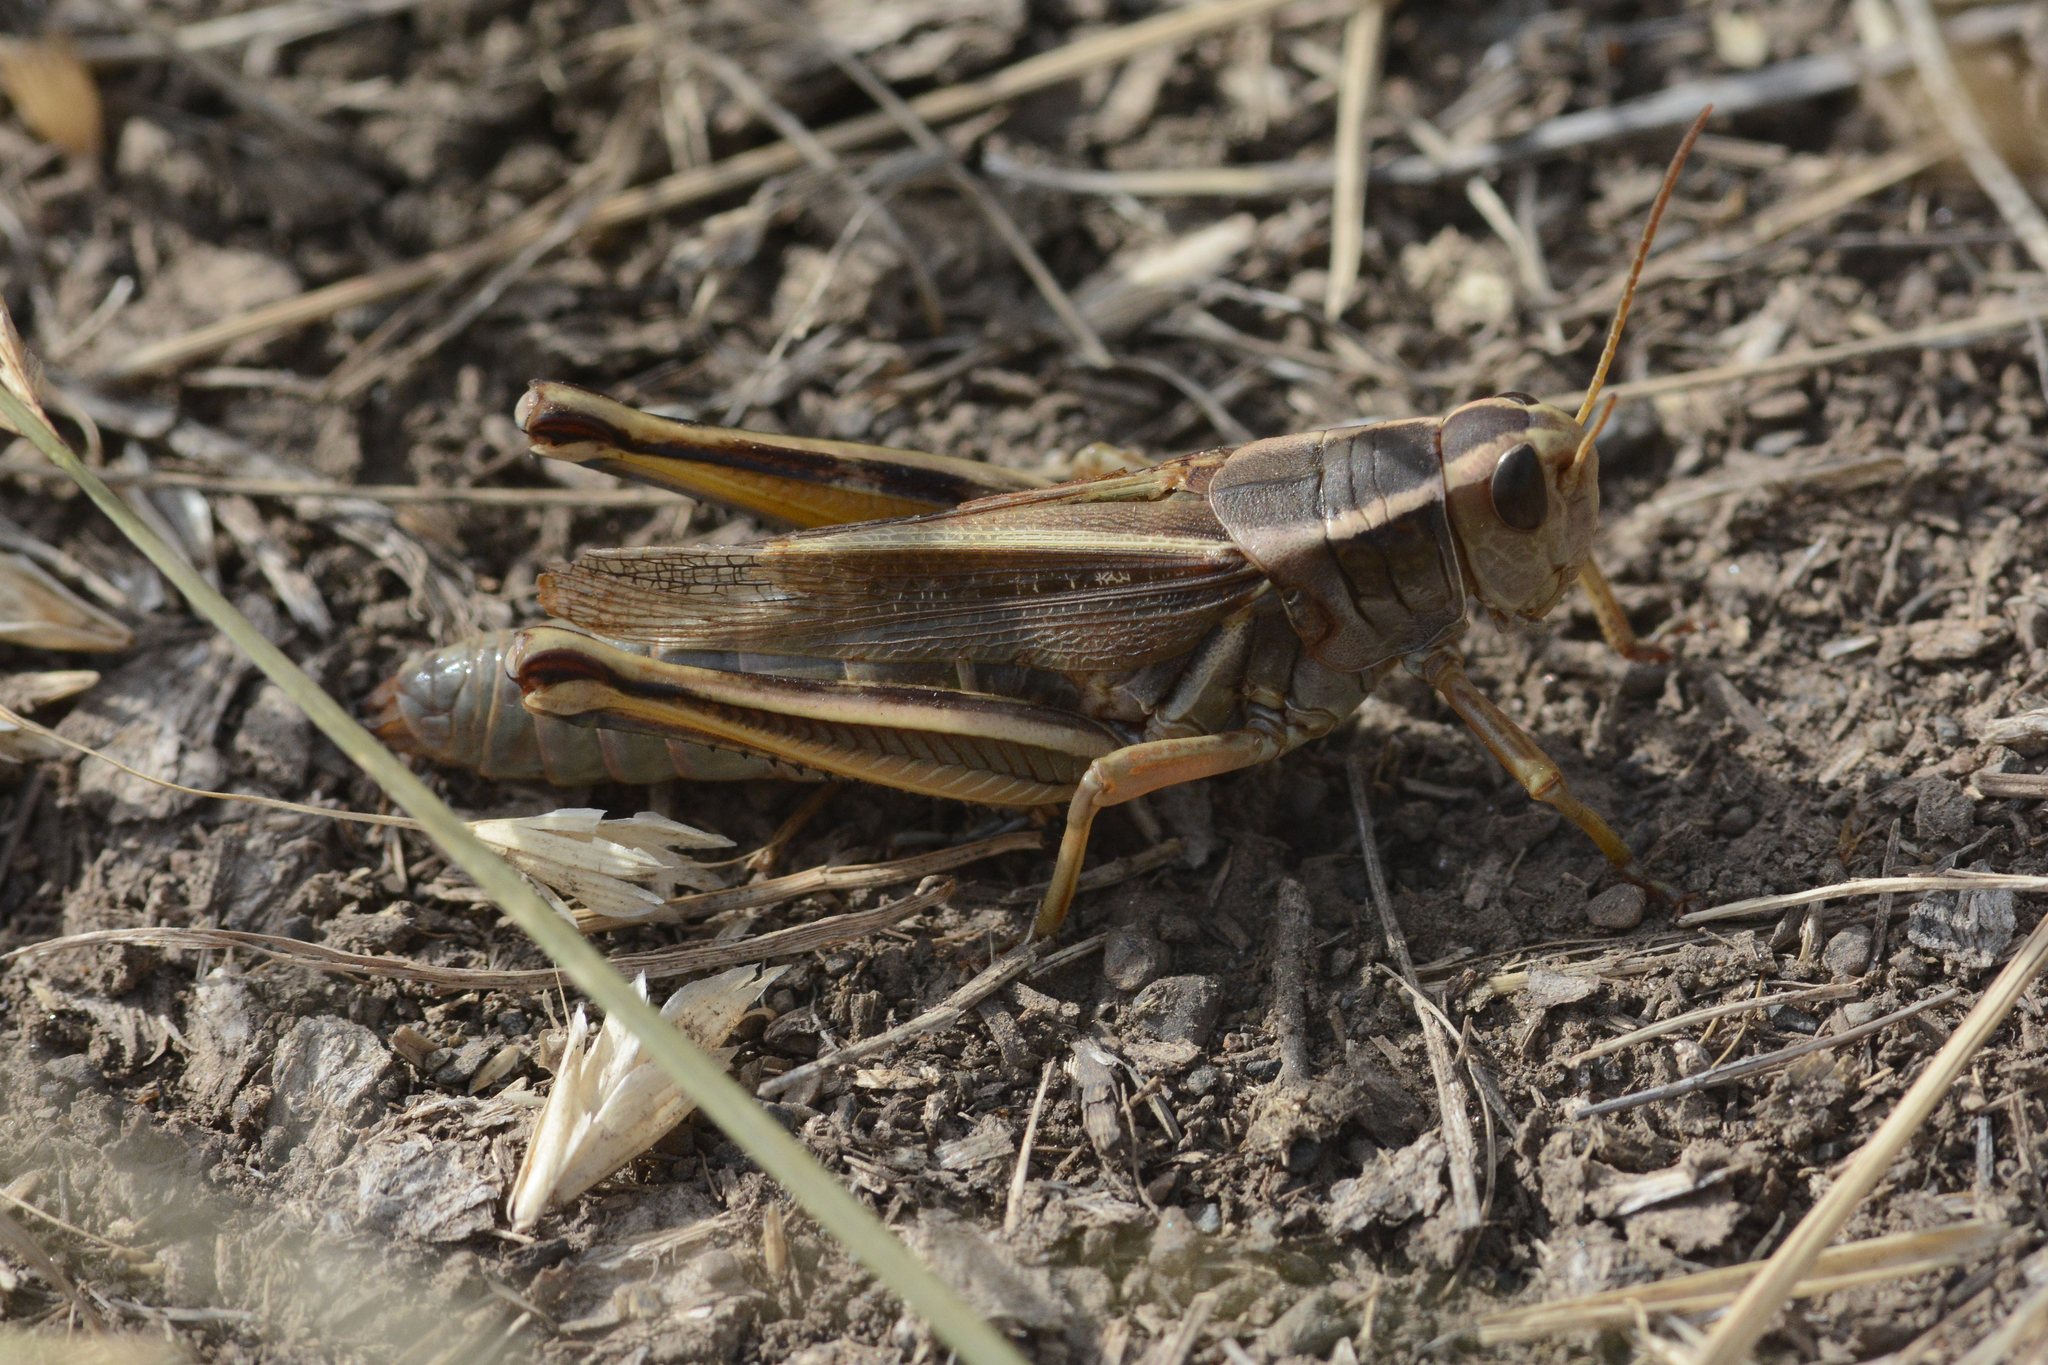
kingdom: Animalia
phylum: Arthropoda
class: Insecta
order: Orthoptera
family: Acrididae
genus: Melanoplus
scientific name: Melanoplus bivittatus
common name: Two-striped grasshopper
